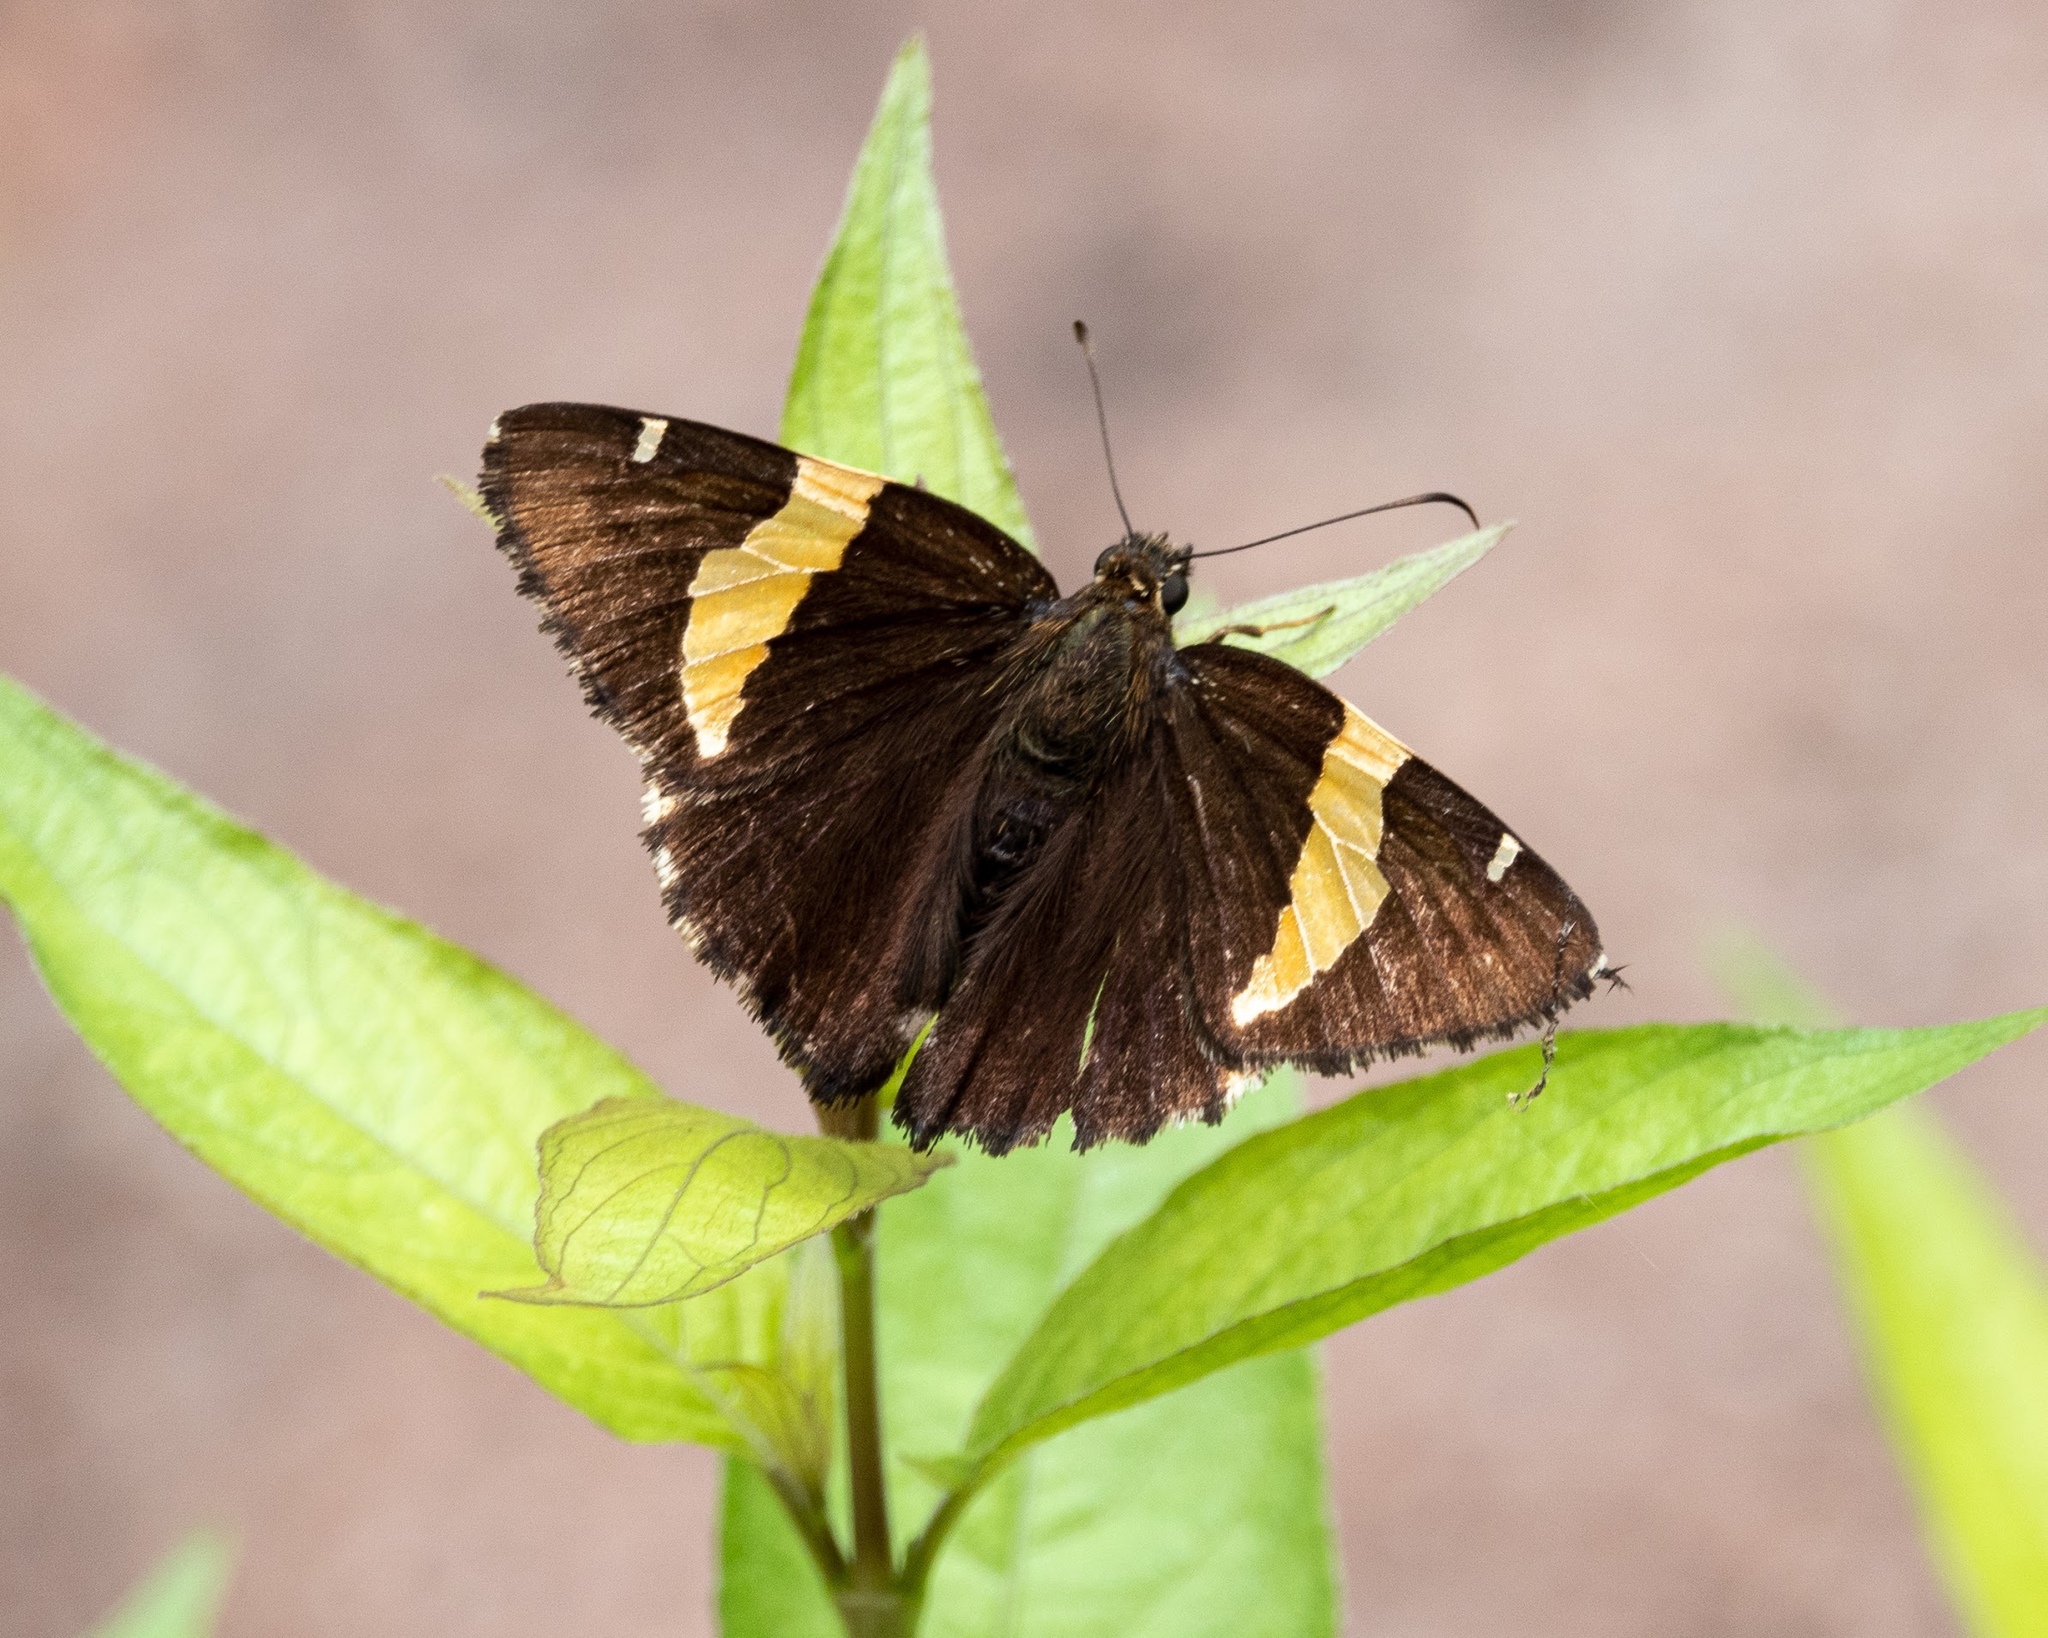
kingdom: Animalia
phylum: Arthropoda
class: Arachnida
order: Scorpiones
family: Bothriuridae
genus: Telegonus
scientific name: Telegonus cellus
